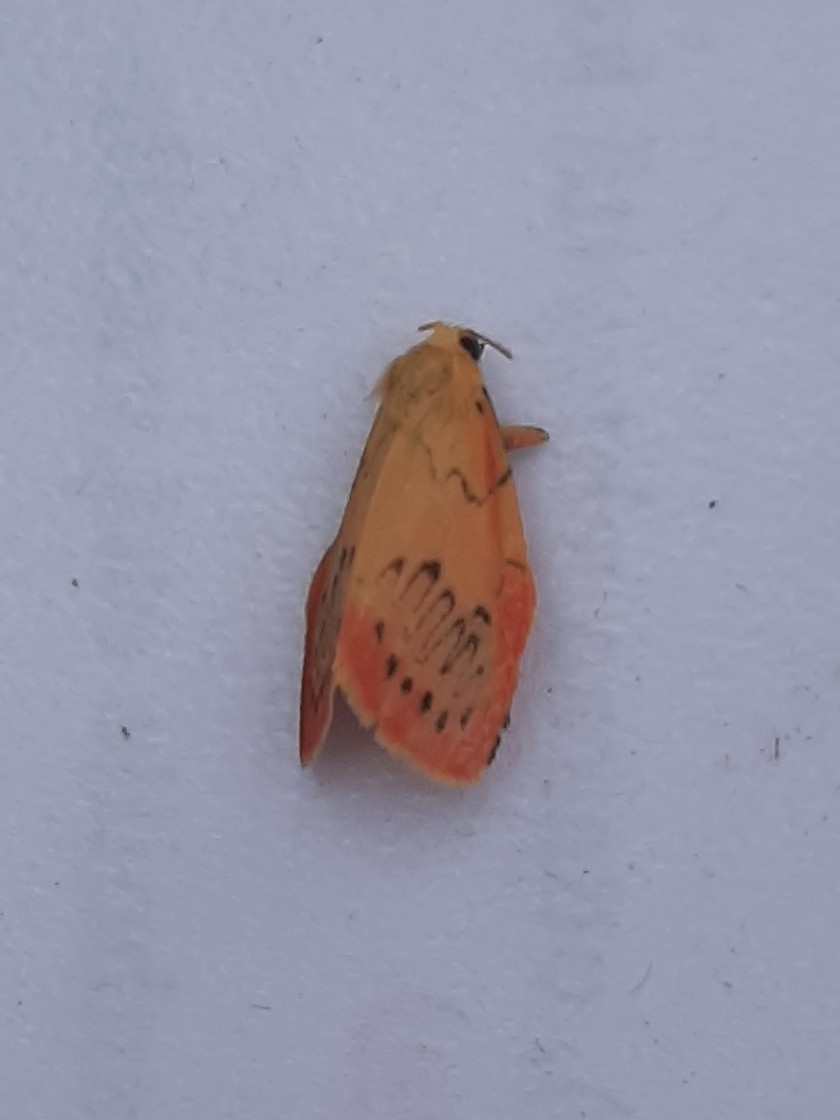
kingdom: Animalia
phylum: Arthropoda
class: Insecta
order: Lepidoptera
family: Erebidae
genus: Miltochrista
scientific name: Miltochrista miniata
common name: Rosy footman
